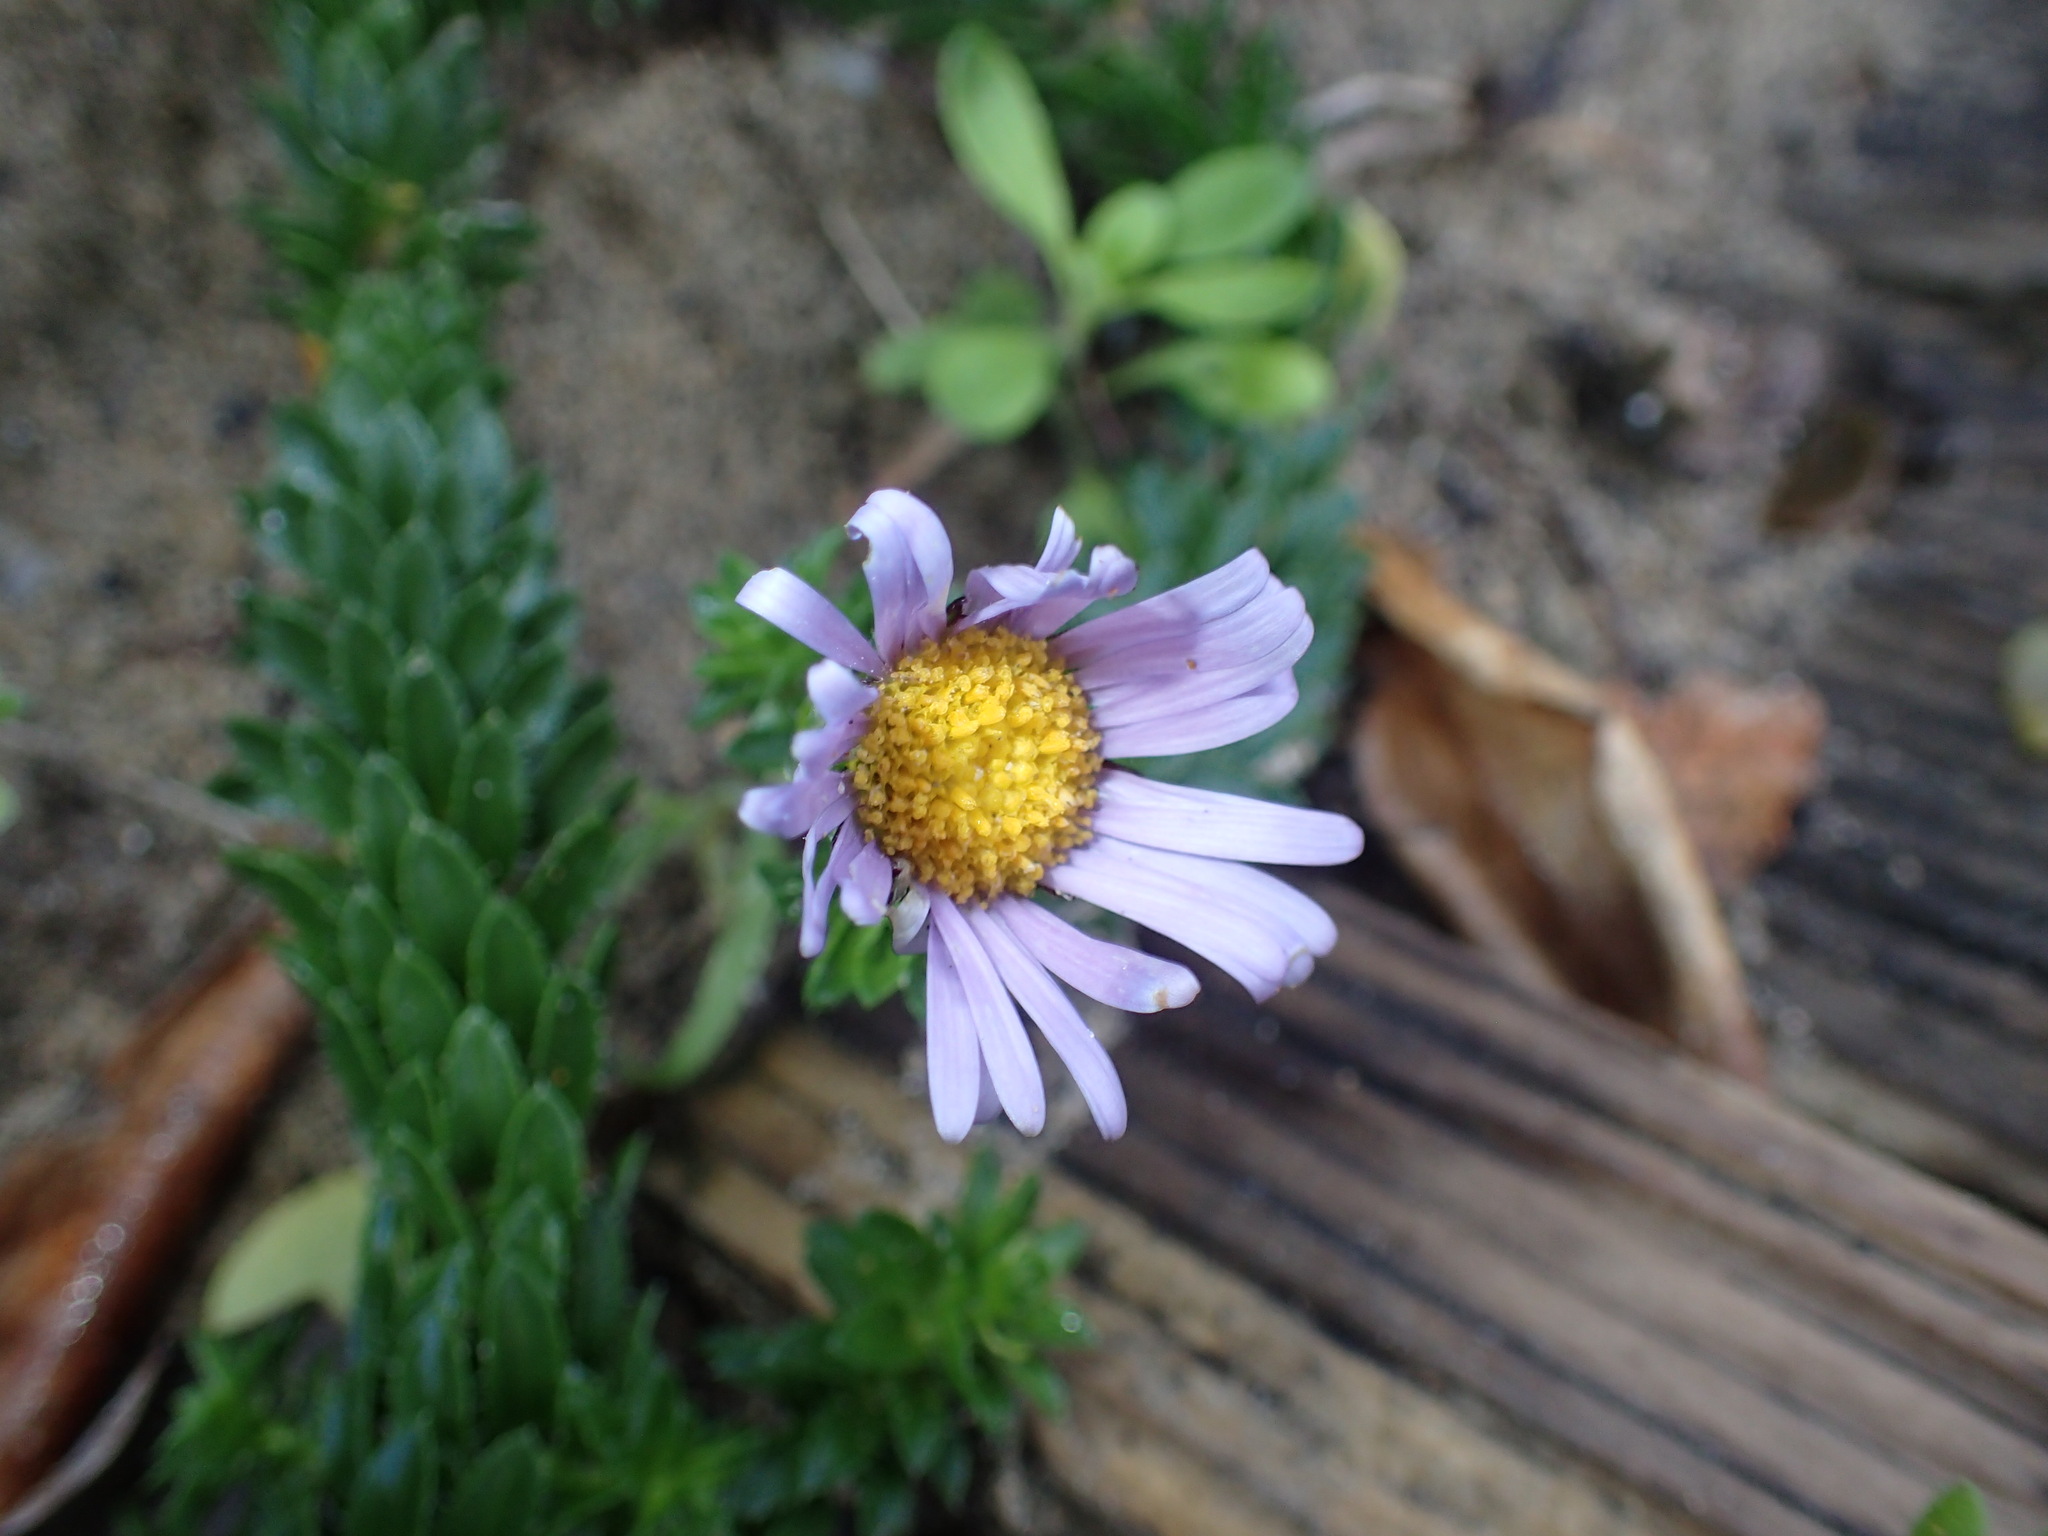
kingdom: Plantae
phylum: Tracheophyta
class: Magnoliopsida
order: Asterales
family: Asteraceae
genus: Felicia
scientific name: Felicia echinata
